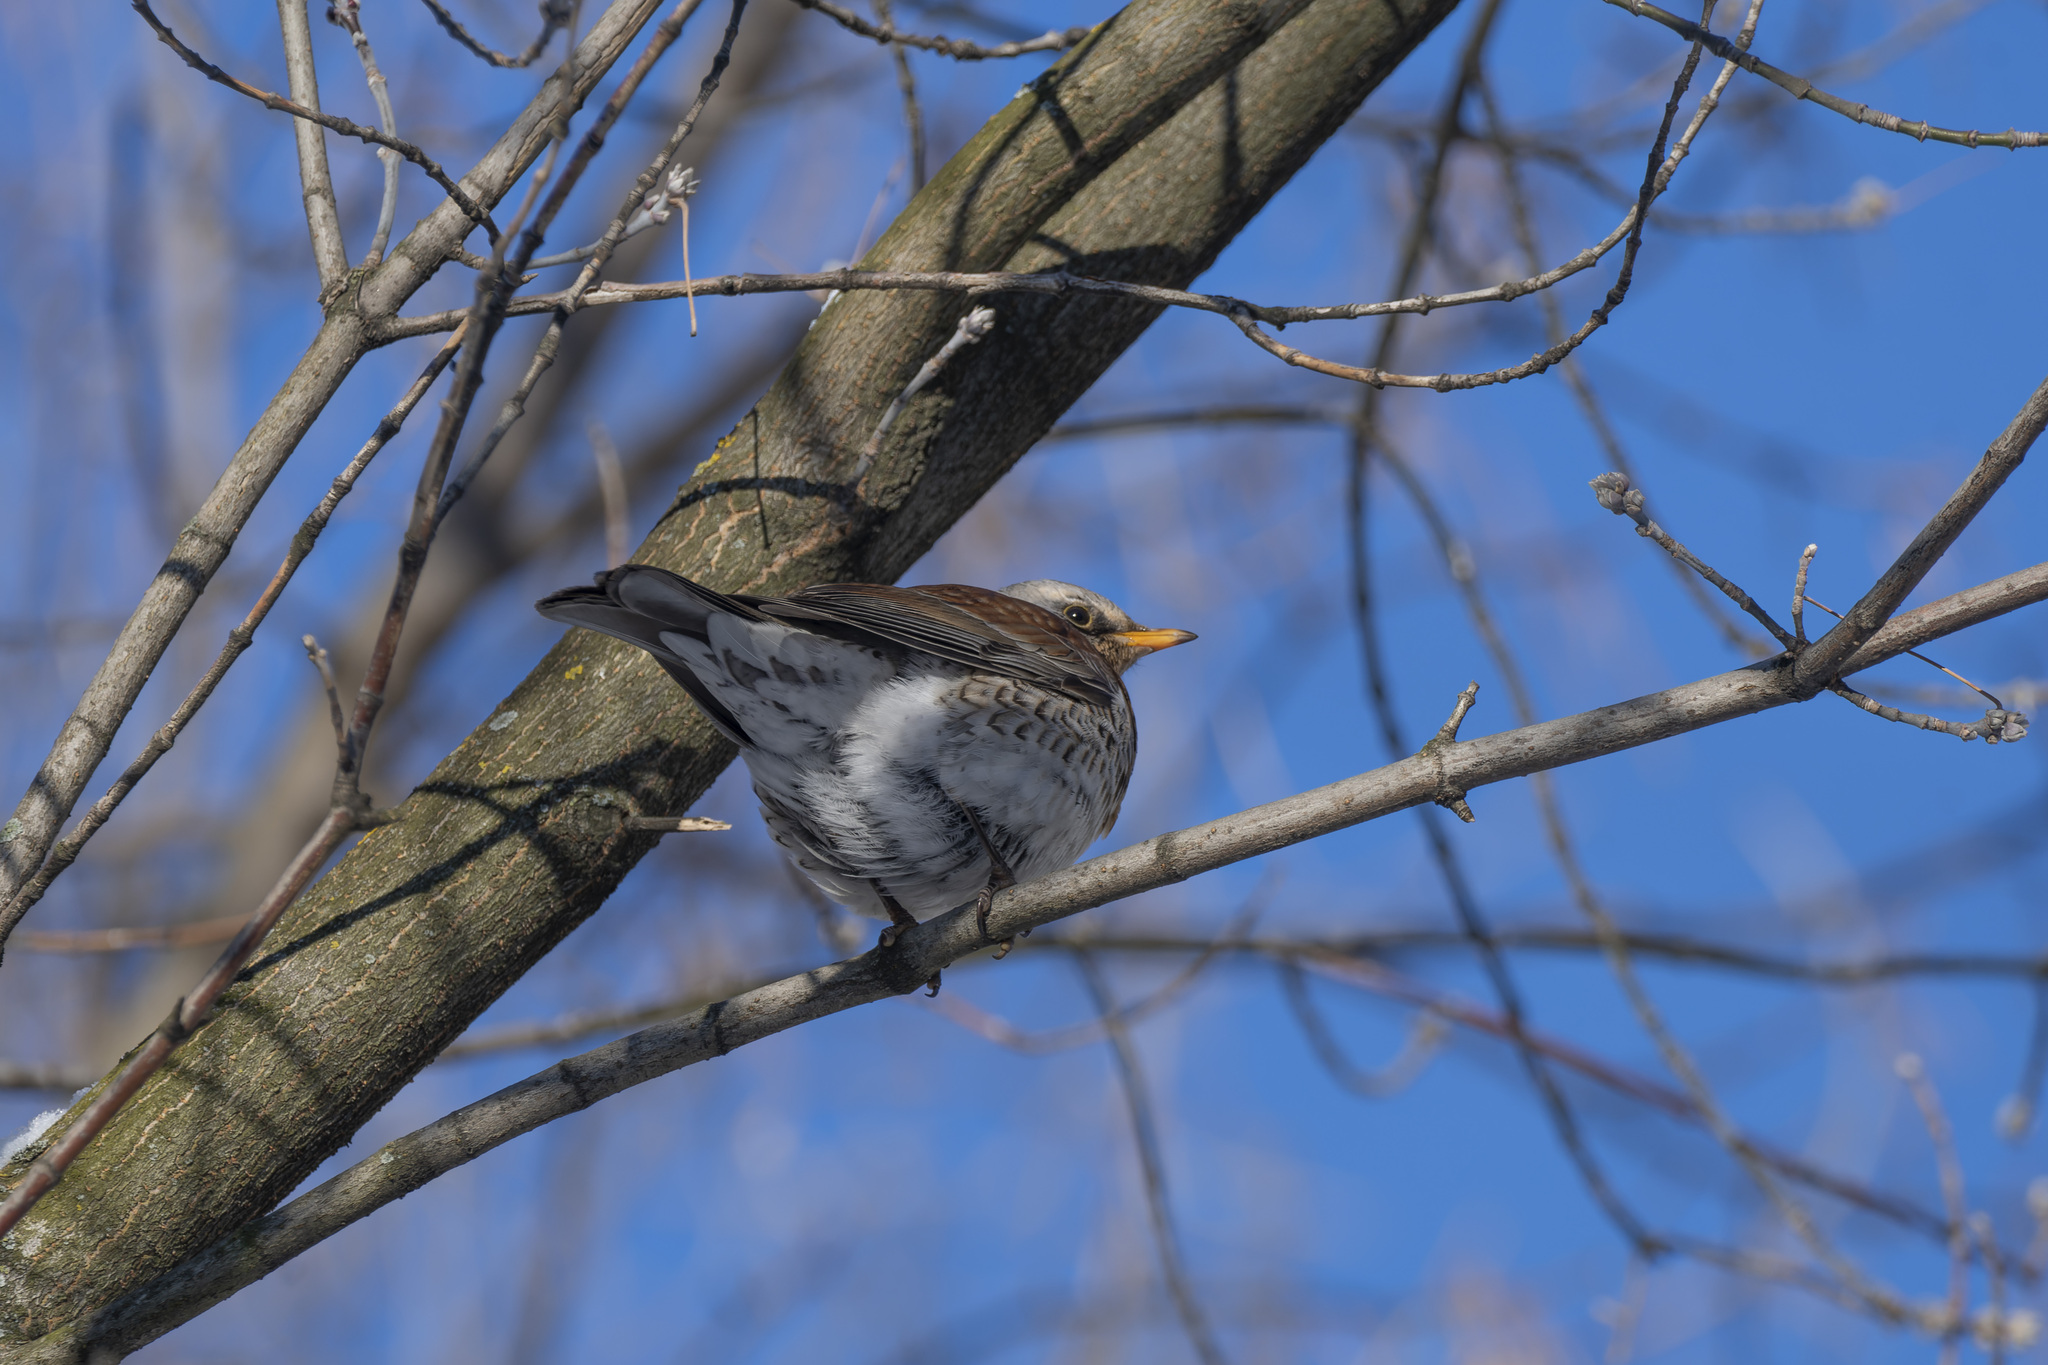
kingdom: Animalia
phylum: Chordata
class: Aves
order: Passeriformes
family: Turdidae
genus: Turdus
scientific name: Turdus pilaris
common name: Fieldfare
